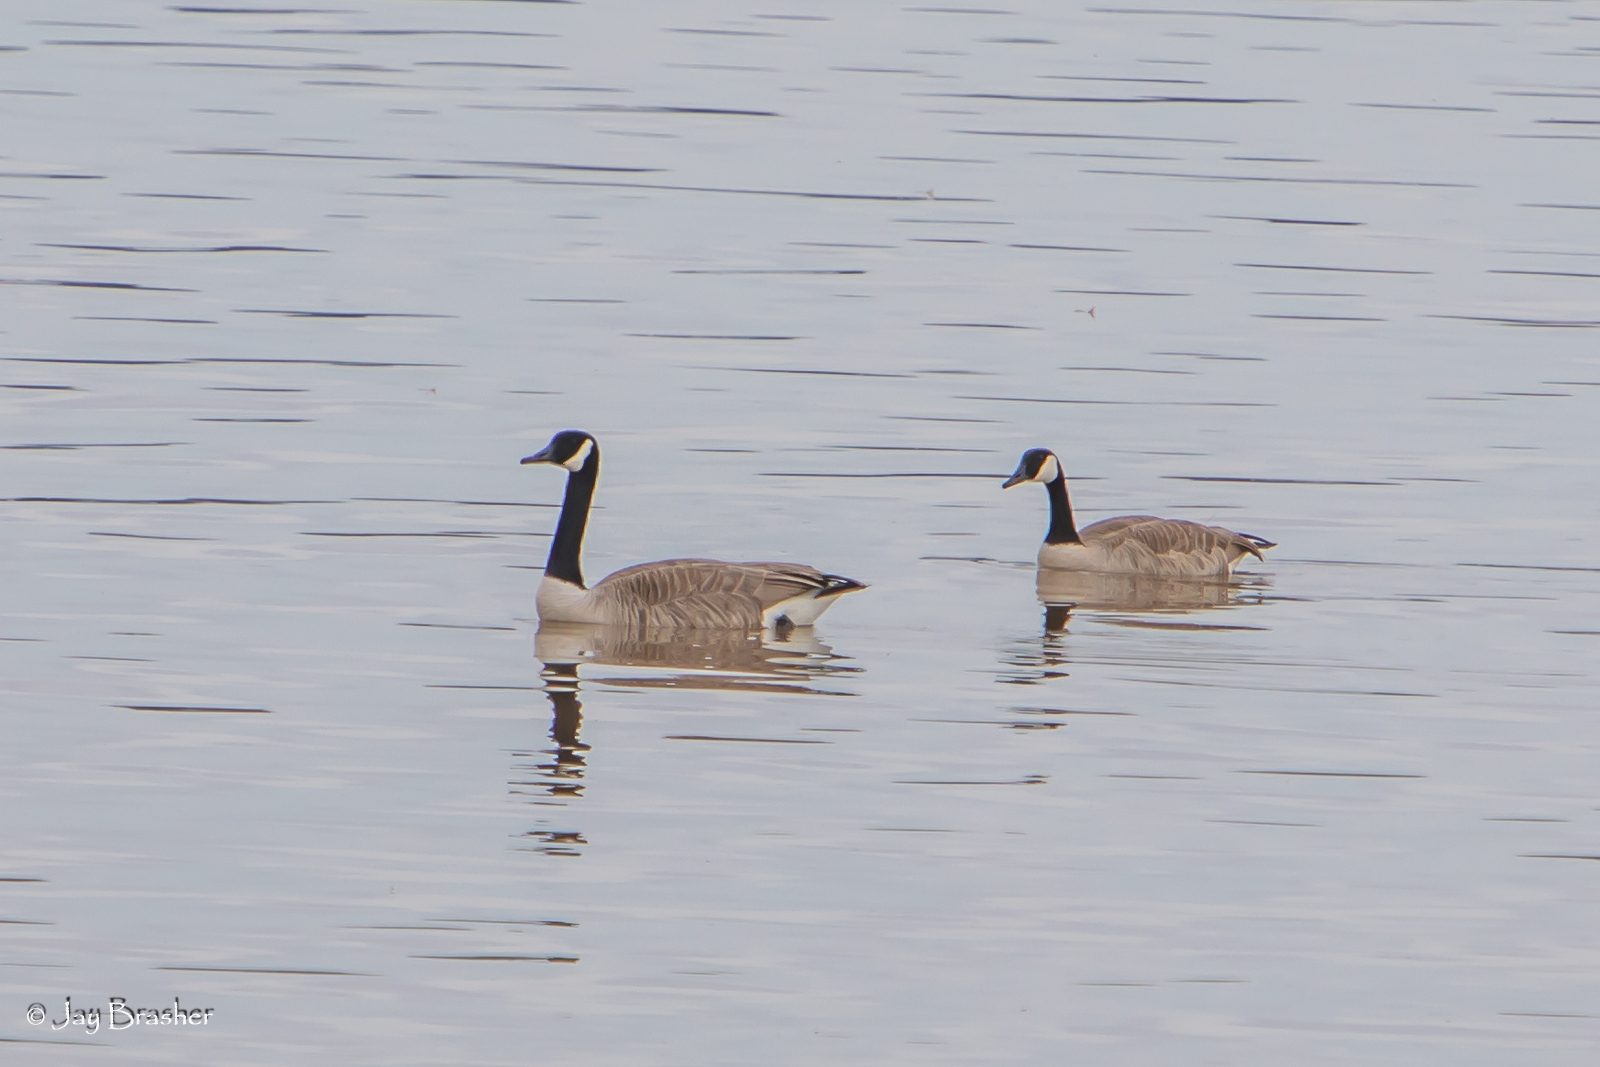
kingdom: Animalia
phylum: Chordata
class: Aves
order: Anseriformes
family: Anatidae
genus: Branta
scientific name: Branta canadensis
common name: Canada goose
